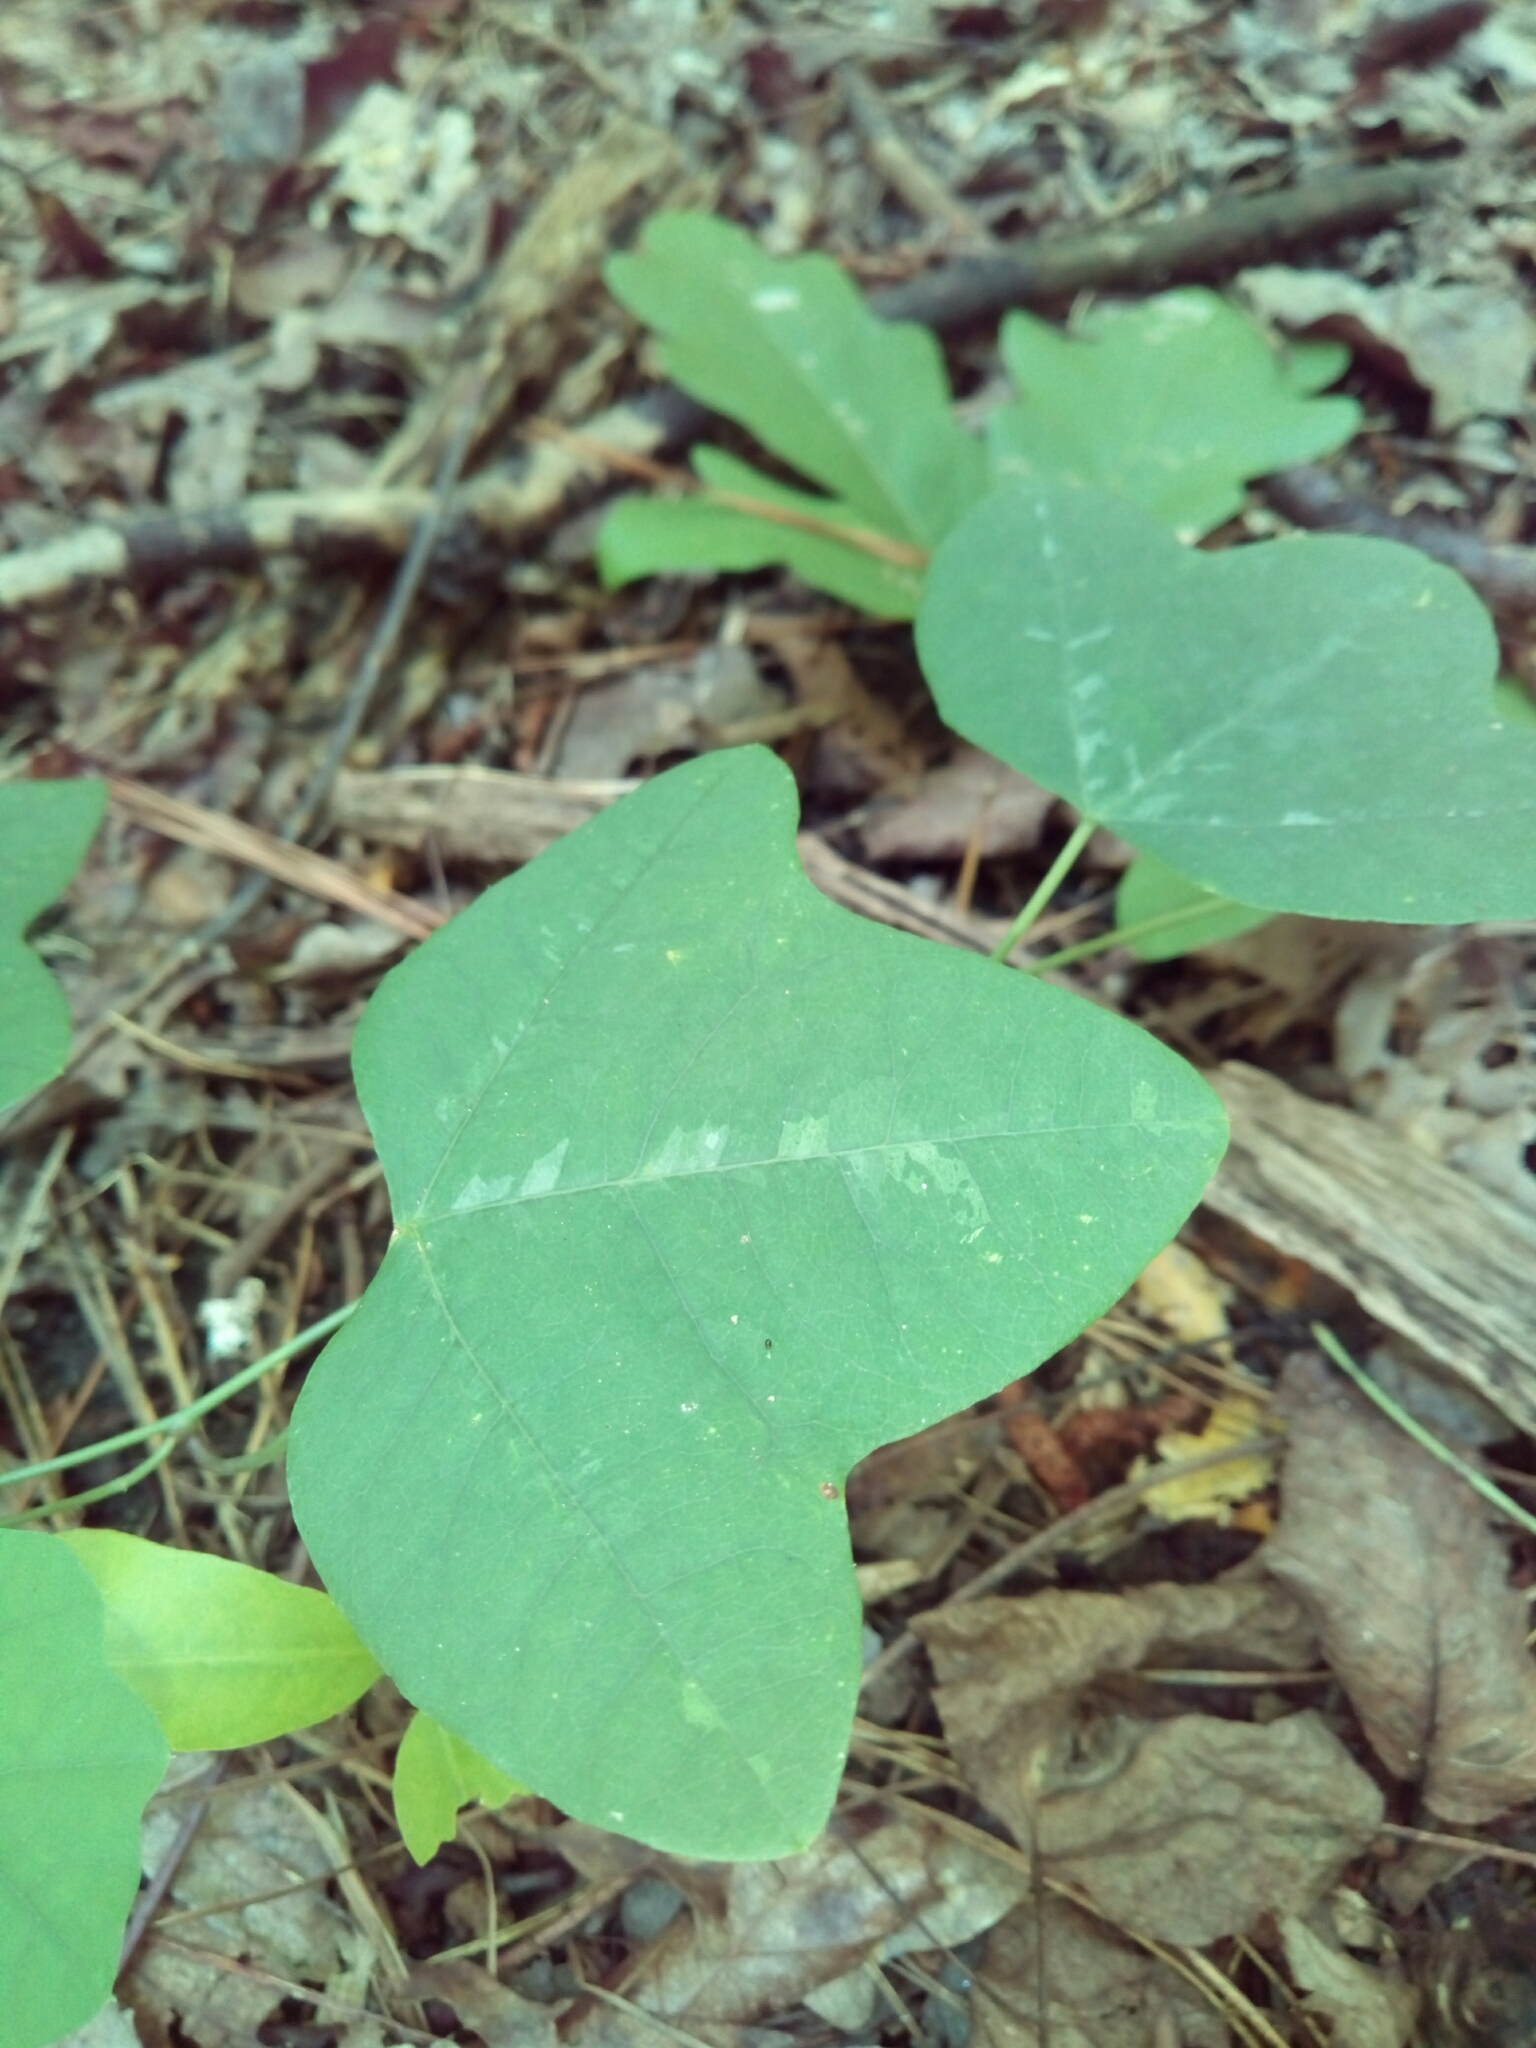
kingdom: Plantae
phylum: Tracheophyta
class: Magnoliopsida
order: Malpighiales
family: Passifloraceae
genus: Passiflora
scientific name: Passiflora lutea
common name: Yellow passionflower
